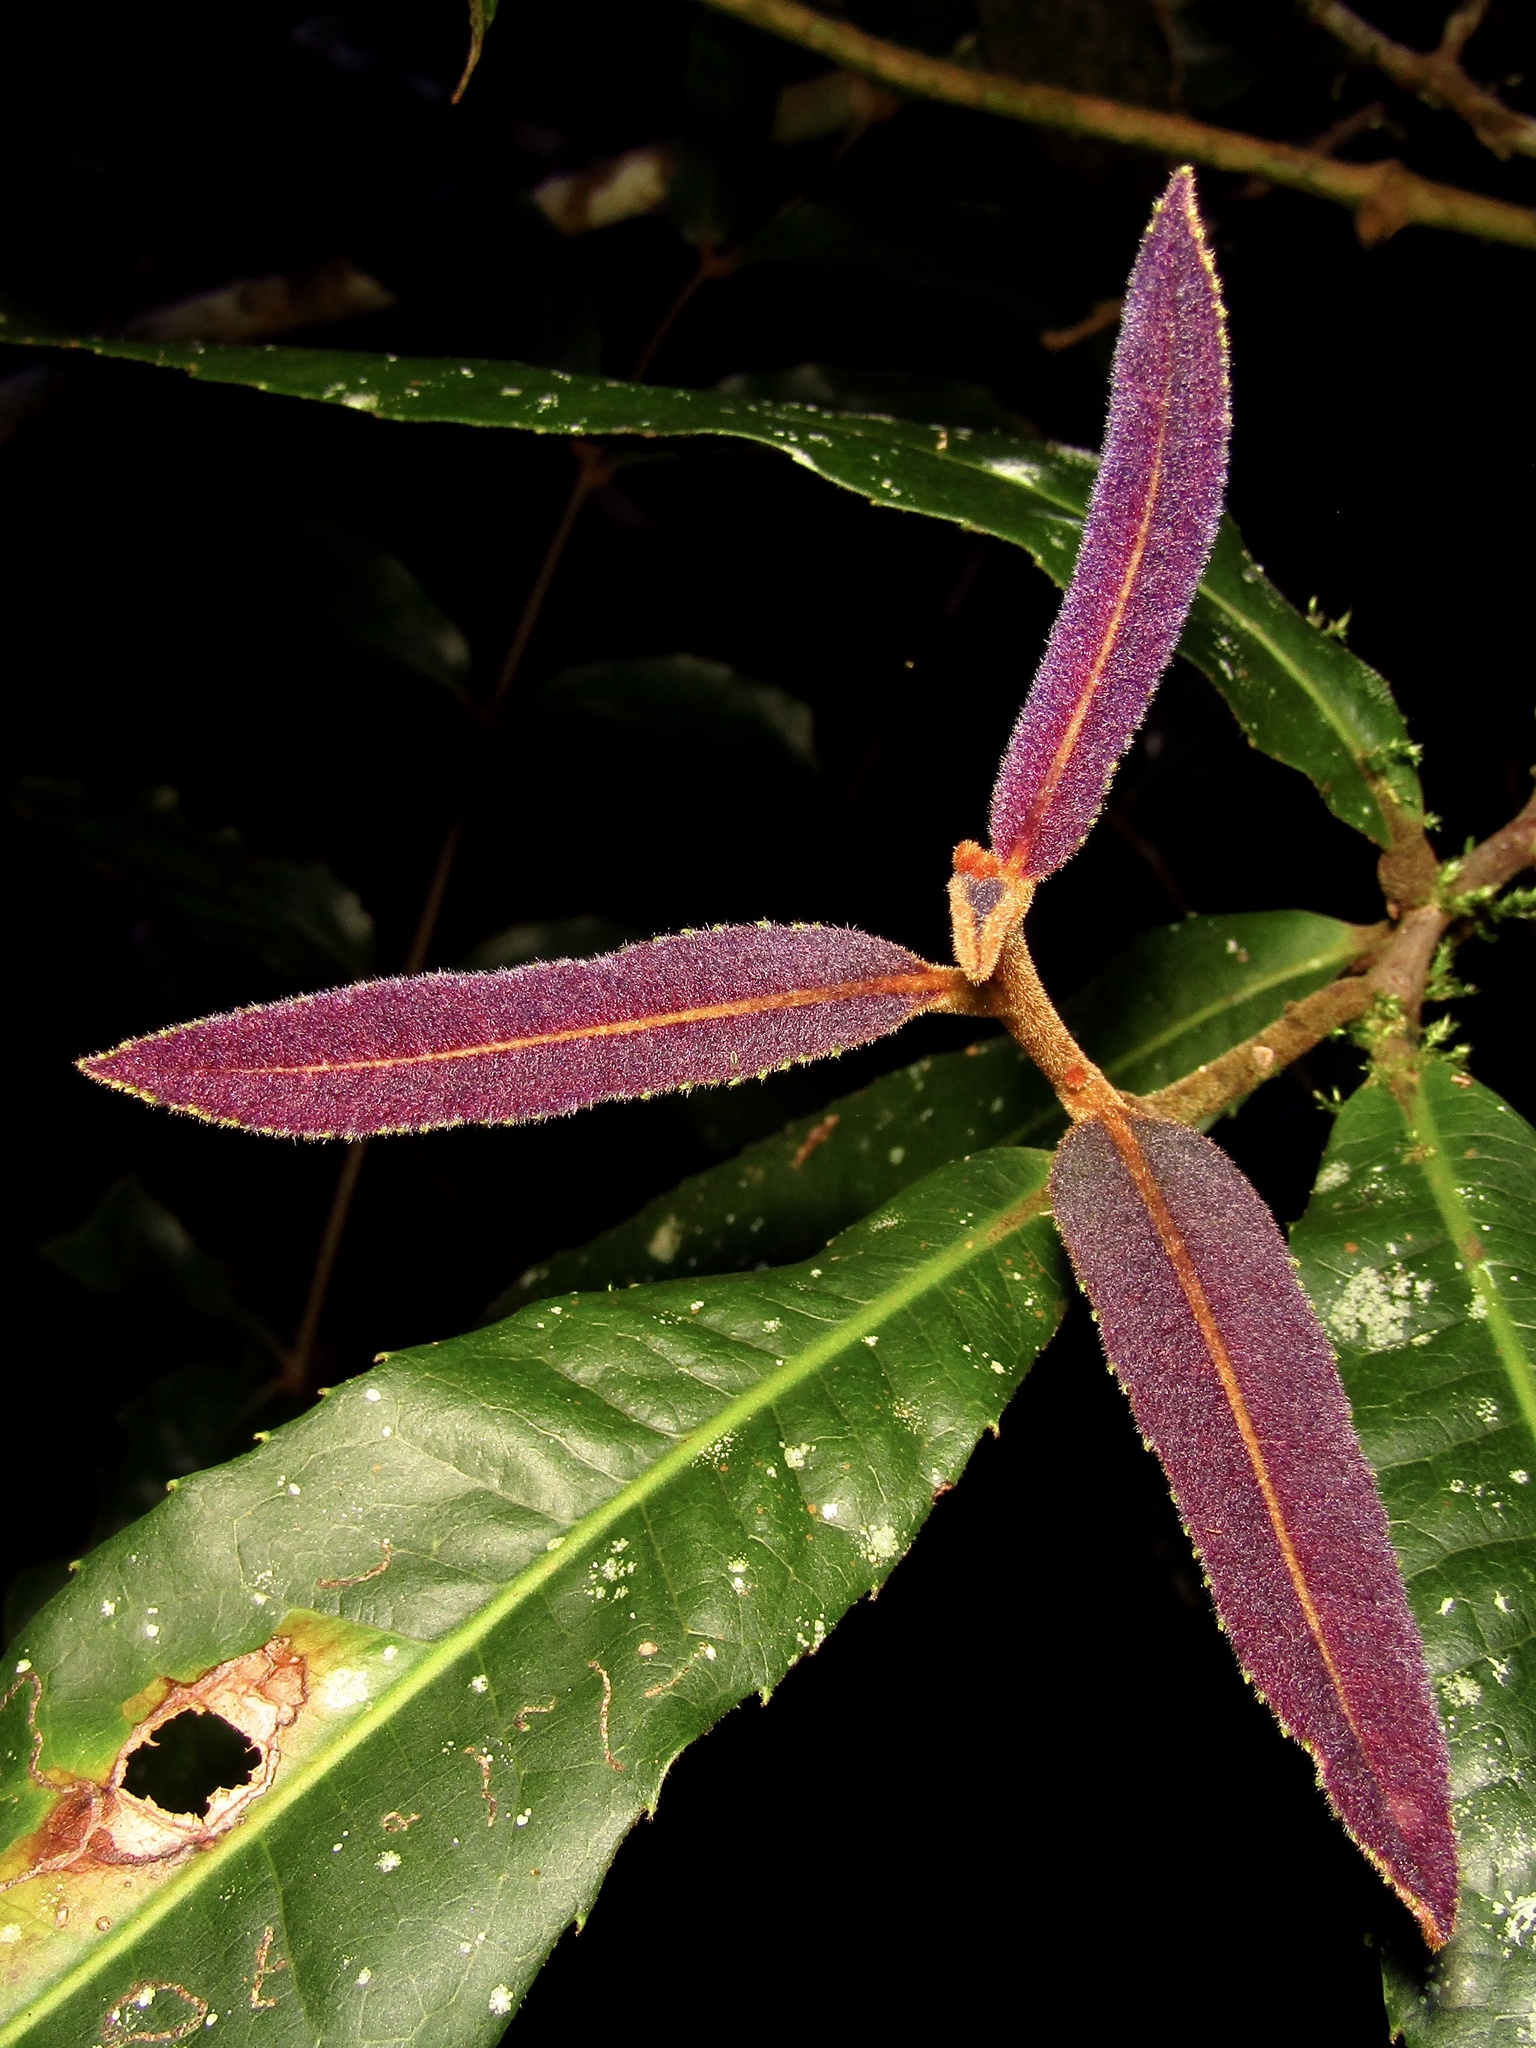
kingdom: Plantae
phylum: Tracheophyta
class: Magnoliopsida
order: Proteales
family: Proteaceae
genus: Helicia
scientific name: Helicia ferruginea
